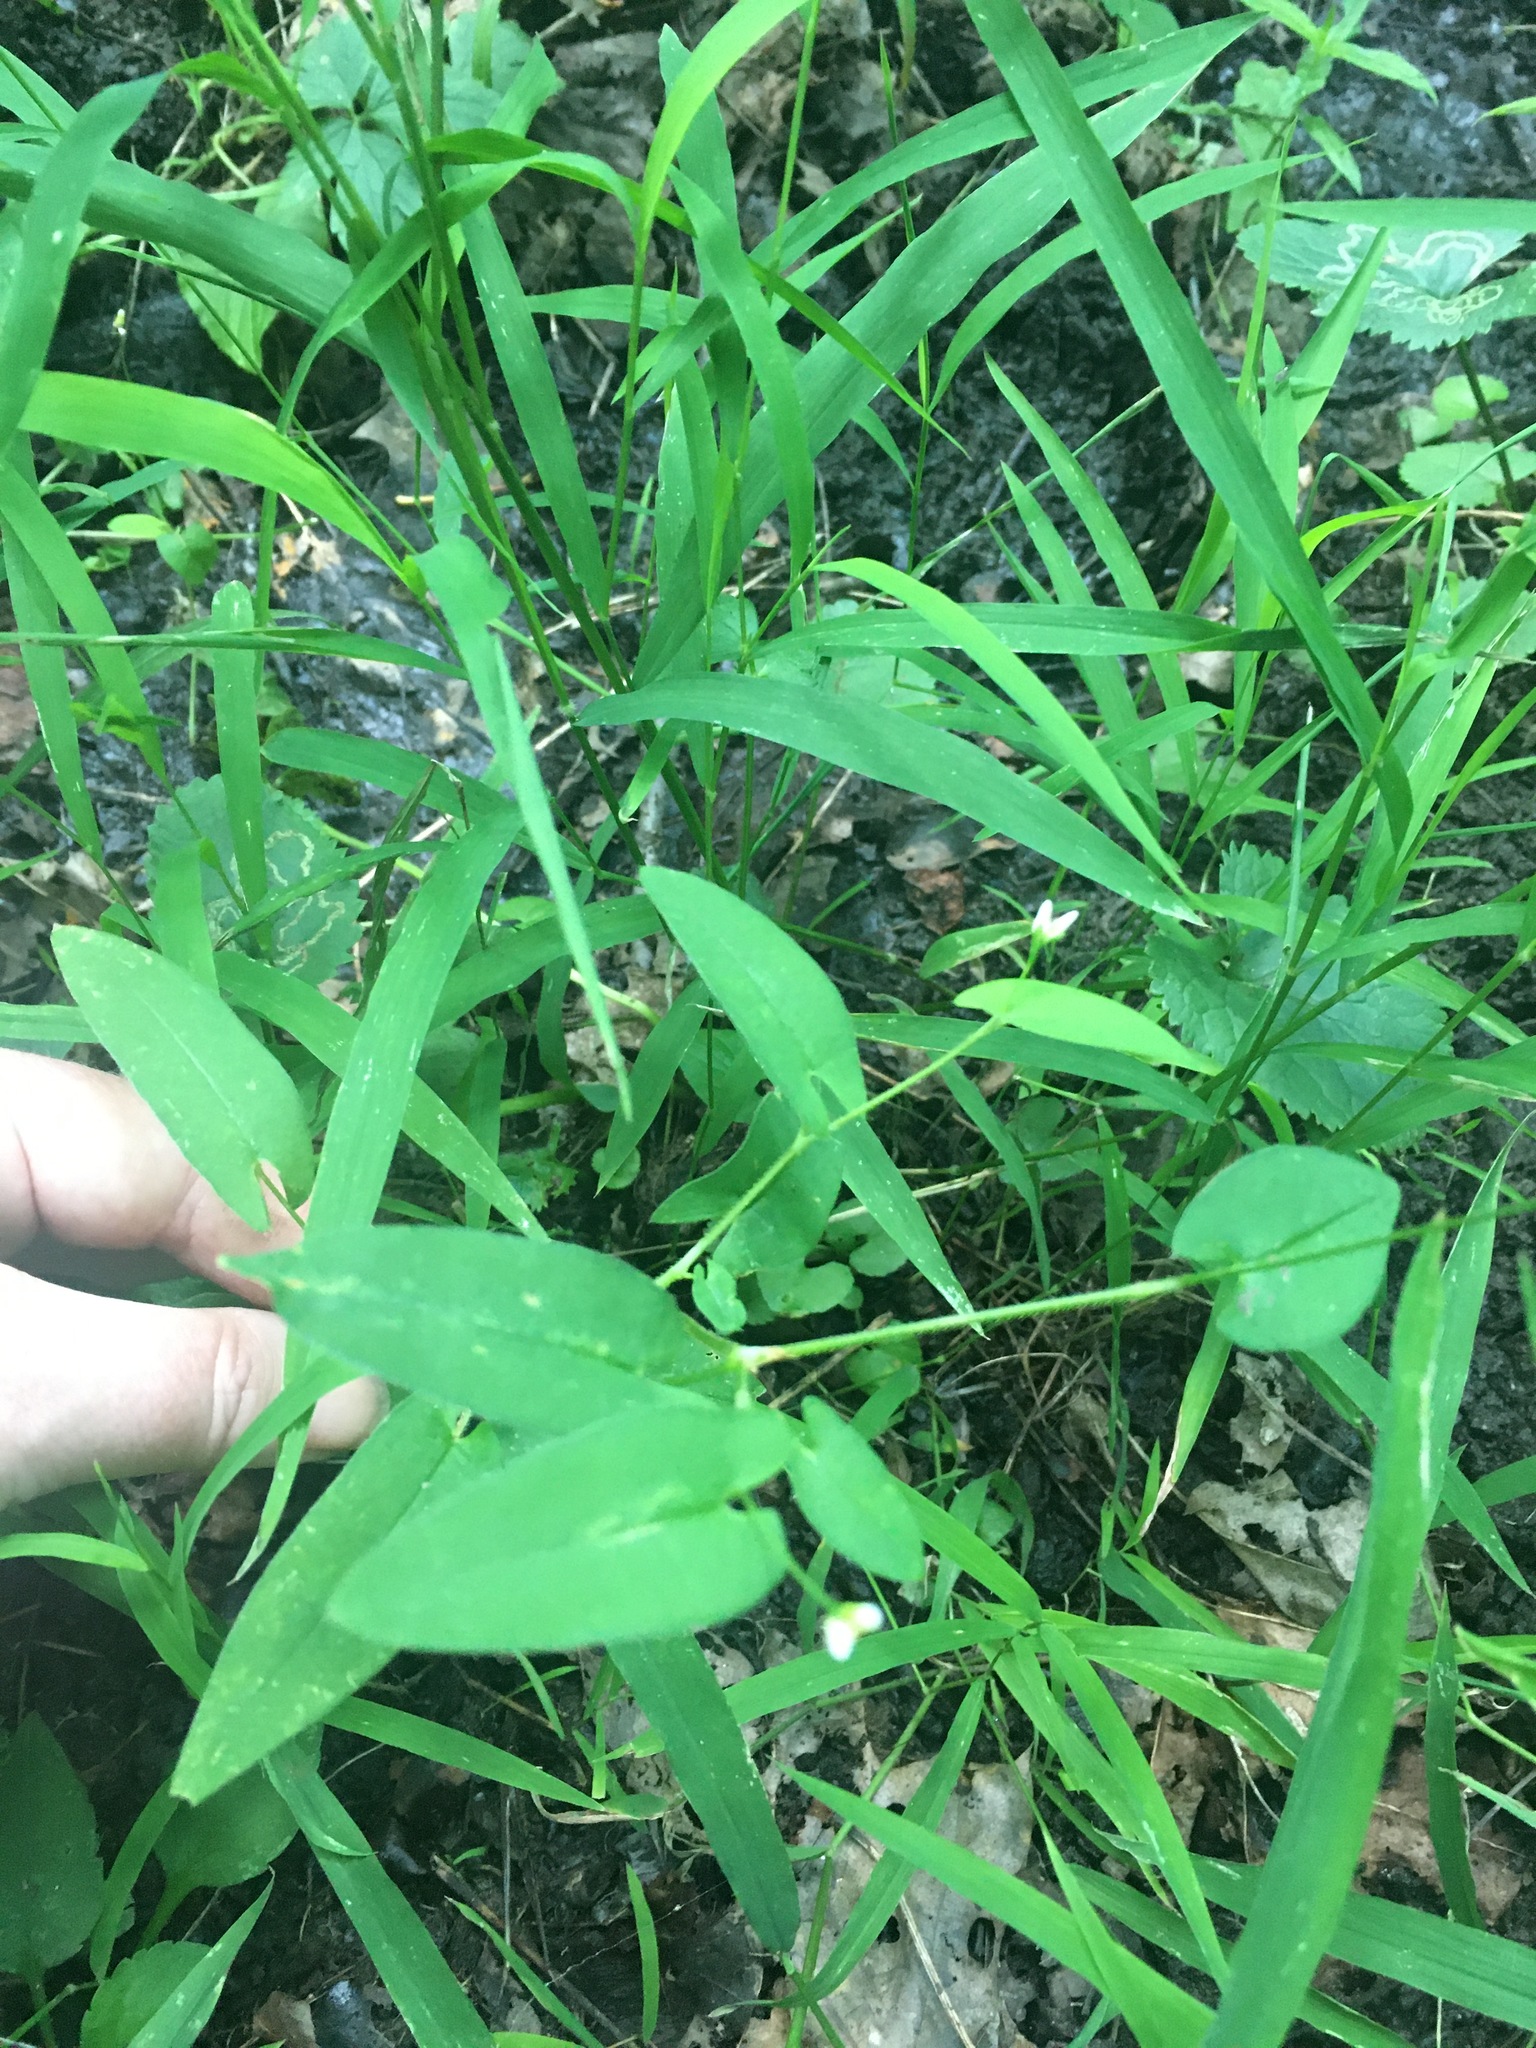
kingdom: Plantae
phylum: Tracheophyta
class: Magnoliopsida
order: Caryophyllales
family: Polygonaceae
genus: Persicaria
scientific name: Persicaria sagittata
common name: American tearthumb
